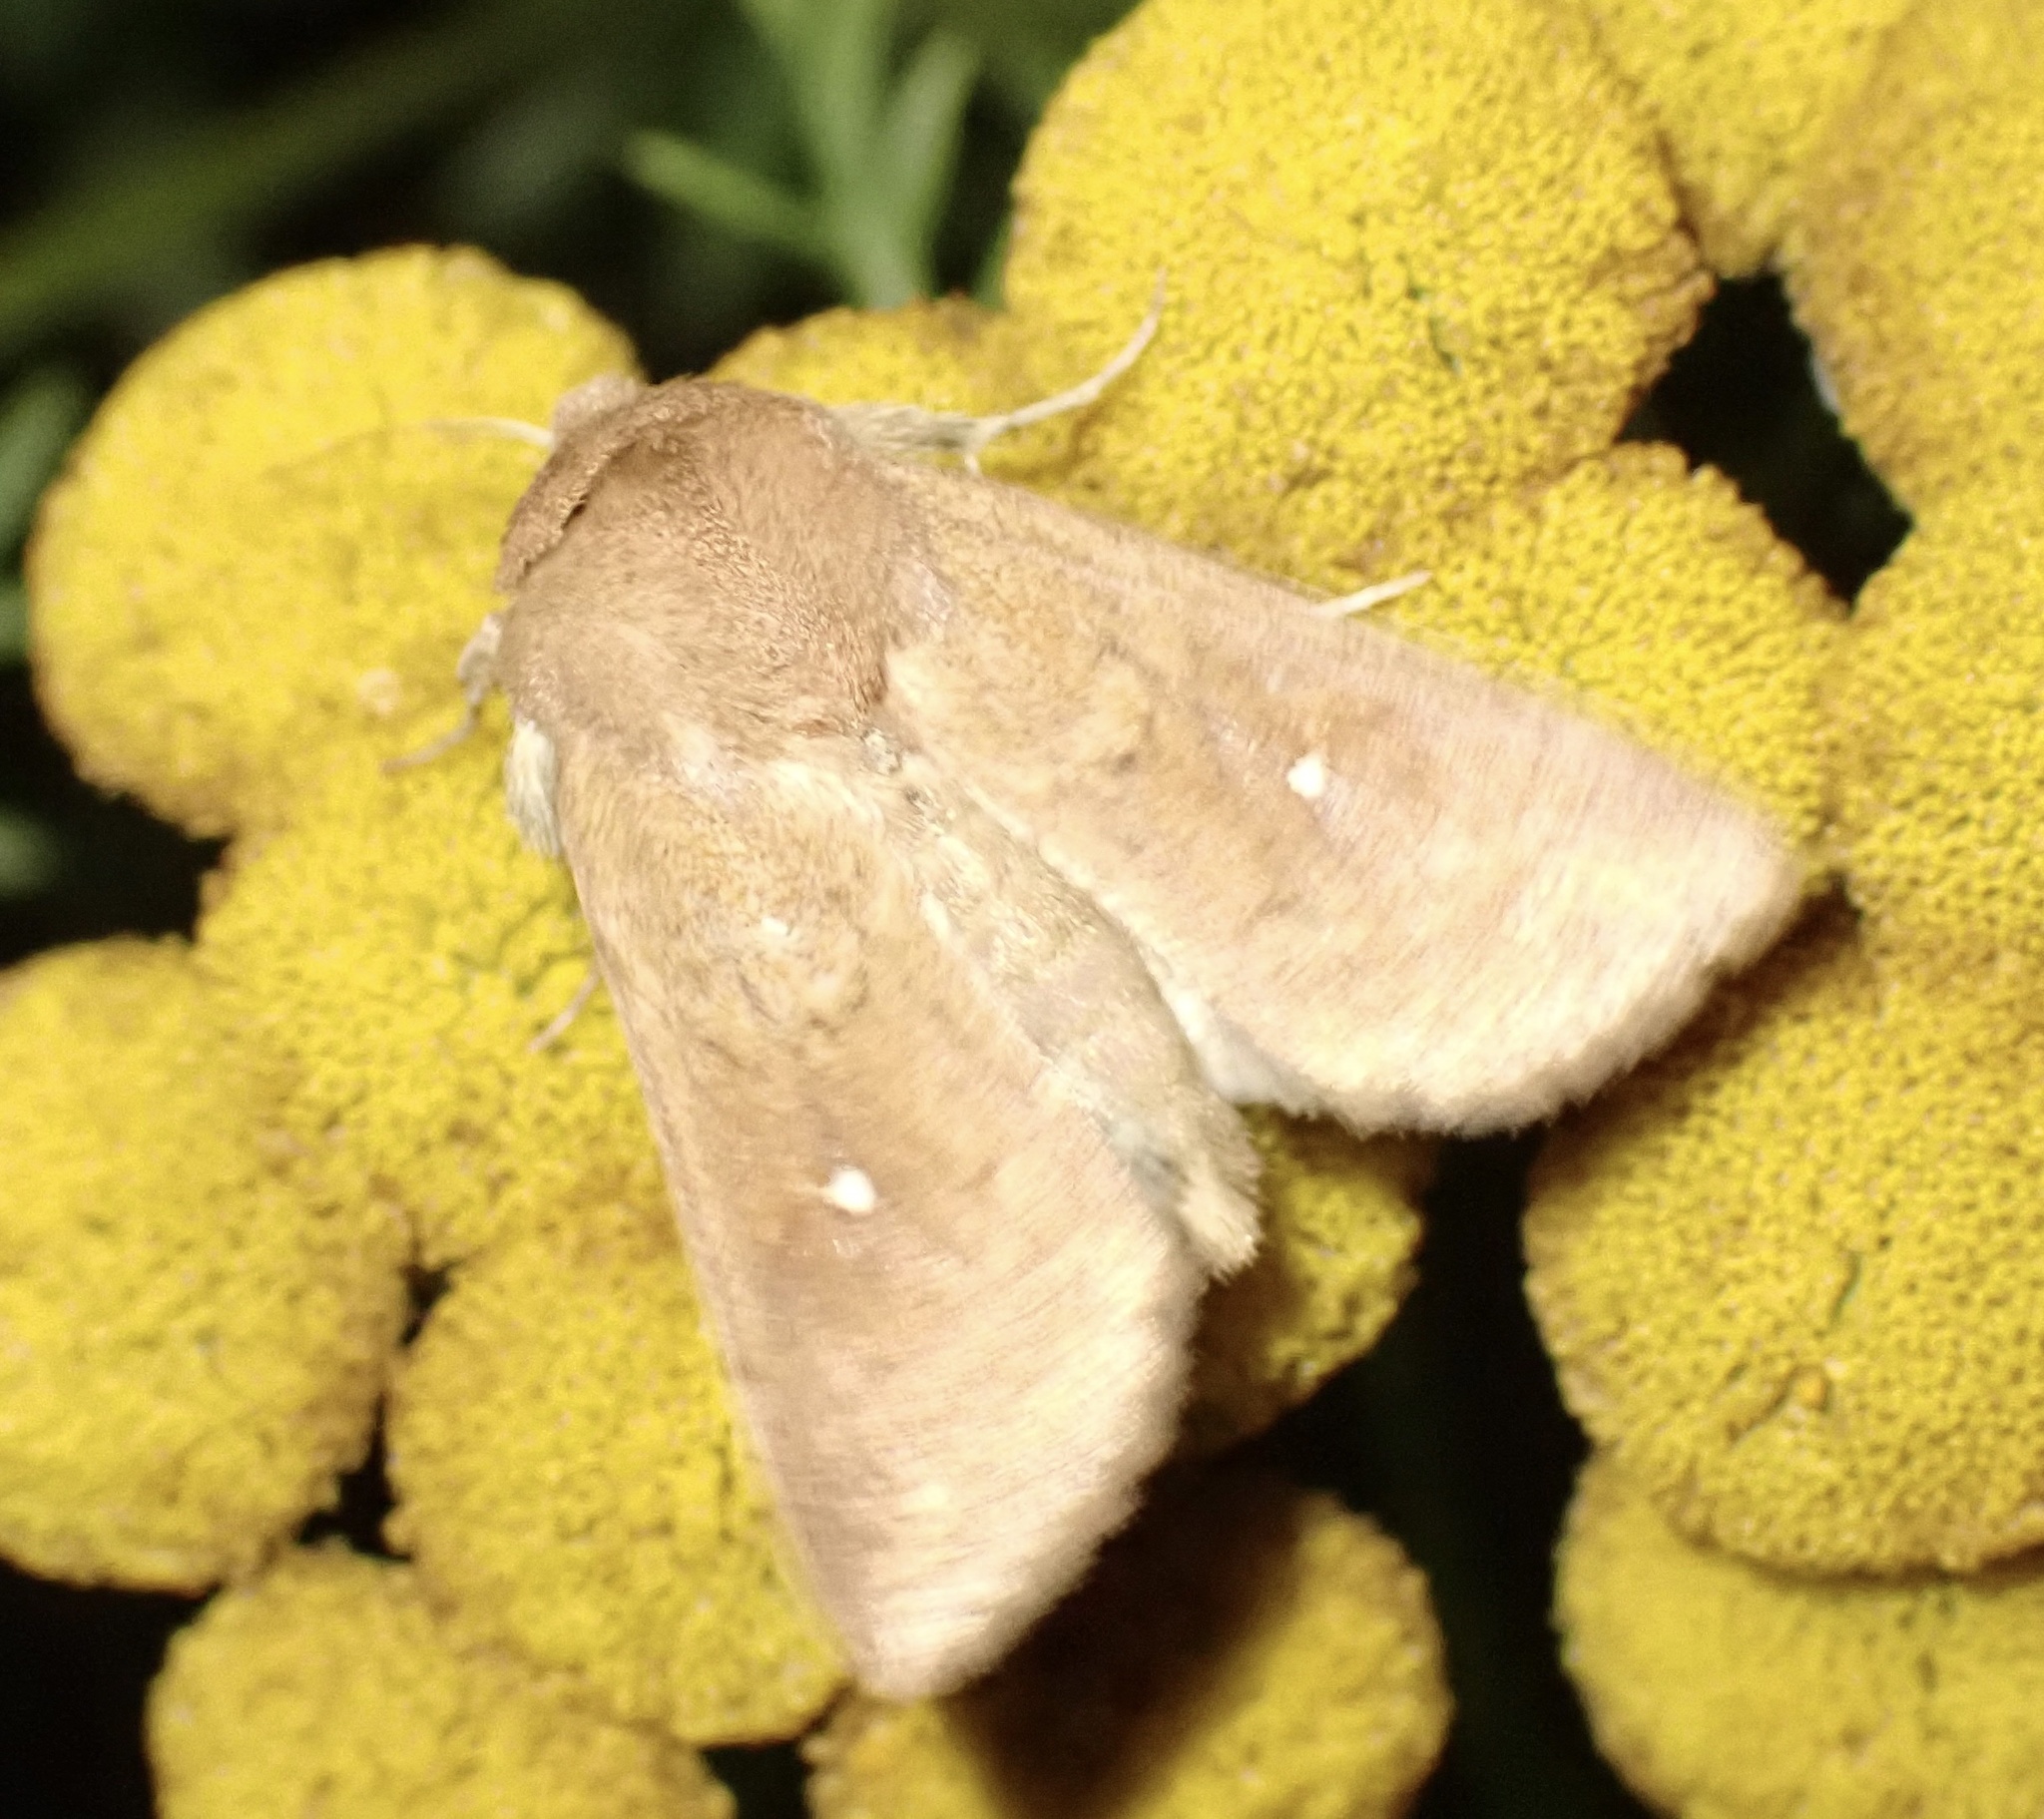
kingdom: Animalia
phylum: Arthropoda
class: Insecta
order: Lepidoptera
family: Noctuidae
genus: Mythimna
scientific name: Mythimna albipuncta
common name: White-point
